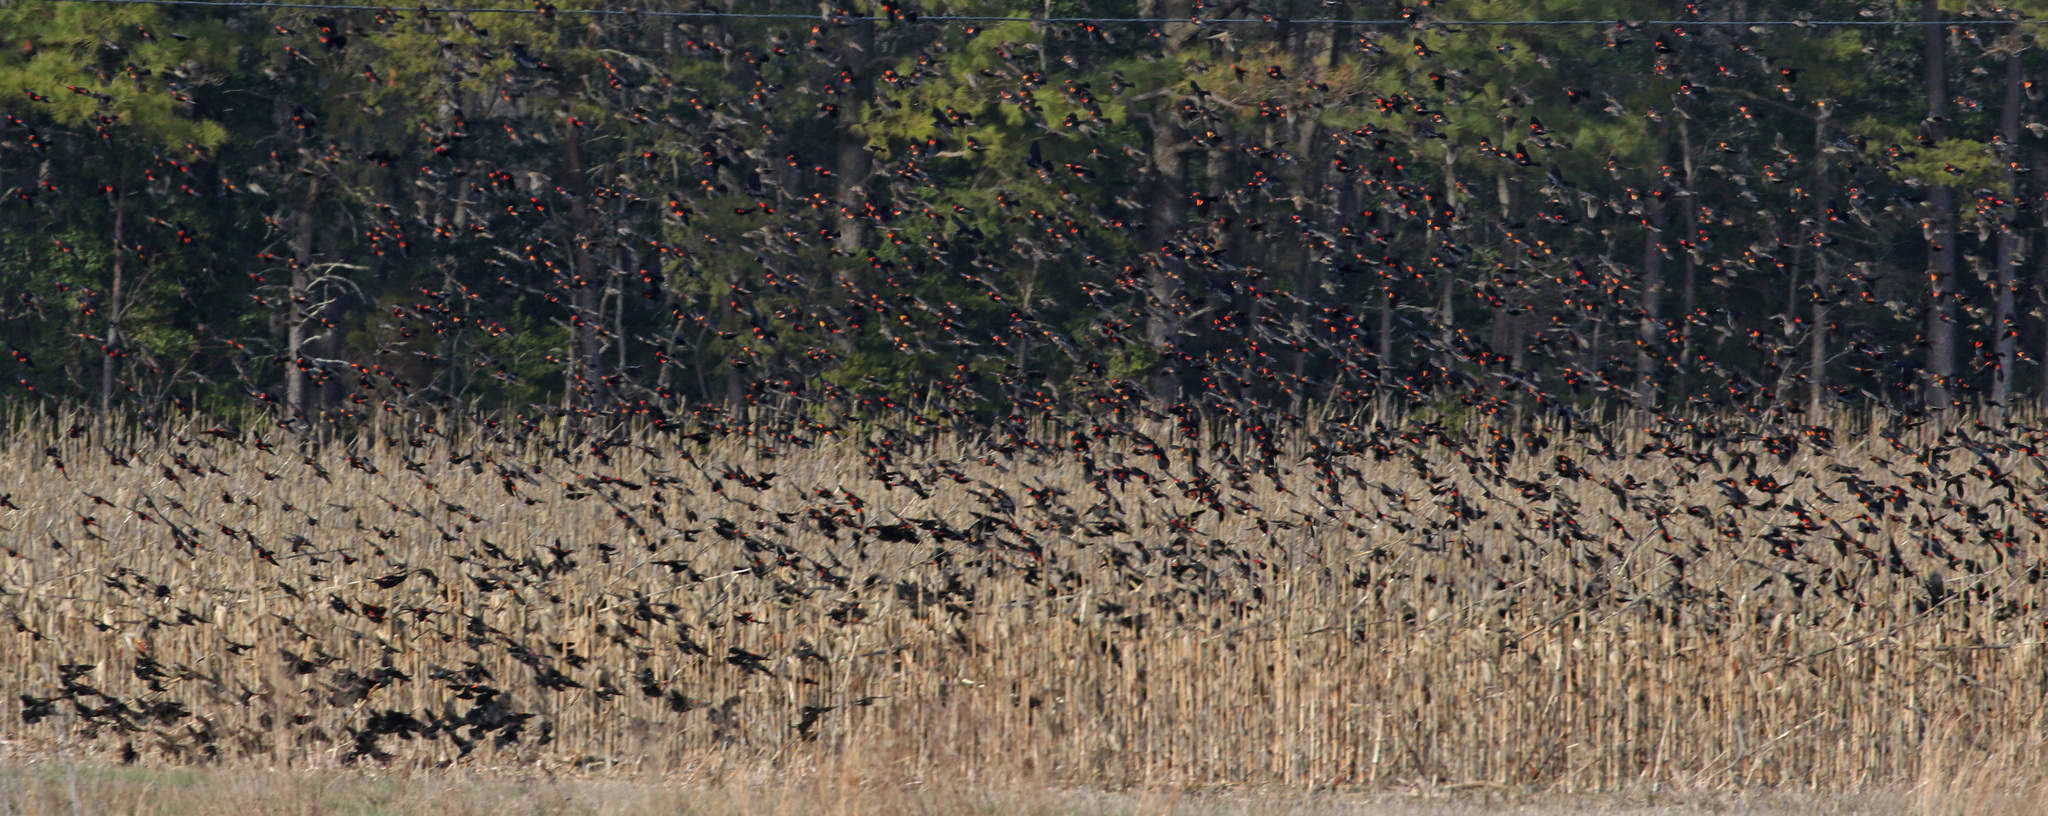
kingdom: Animalia
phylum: Chordata
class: Aves
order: Passeriformes
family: Icteridae
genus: Agelaius
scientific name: Agelaius phoeniceus
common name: Red-winged blackbird
